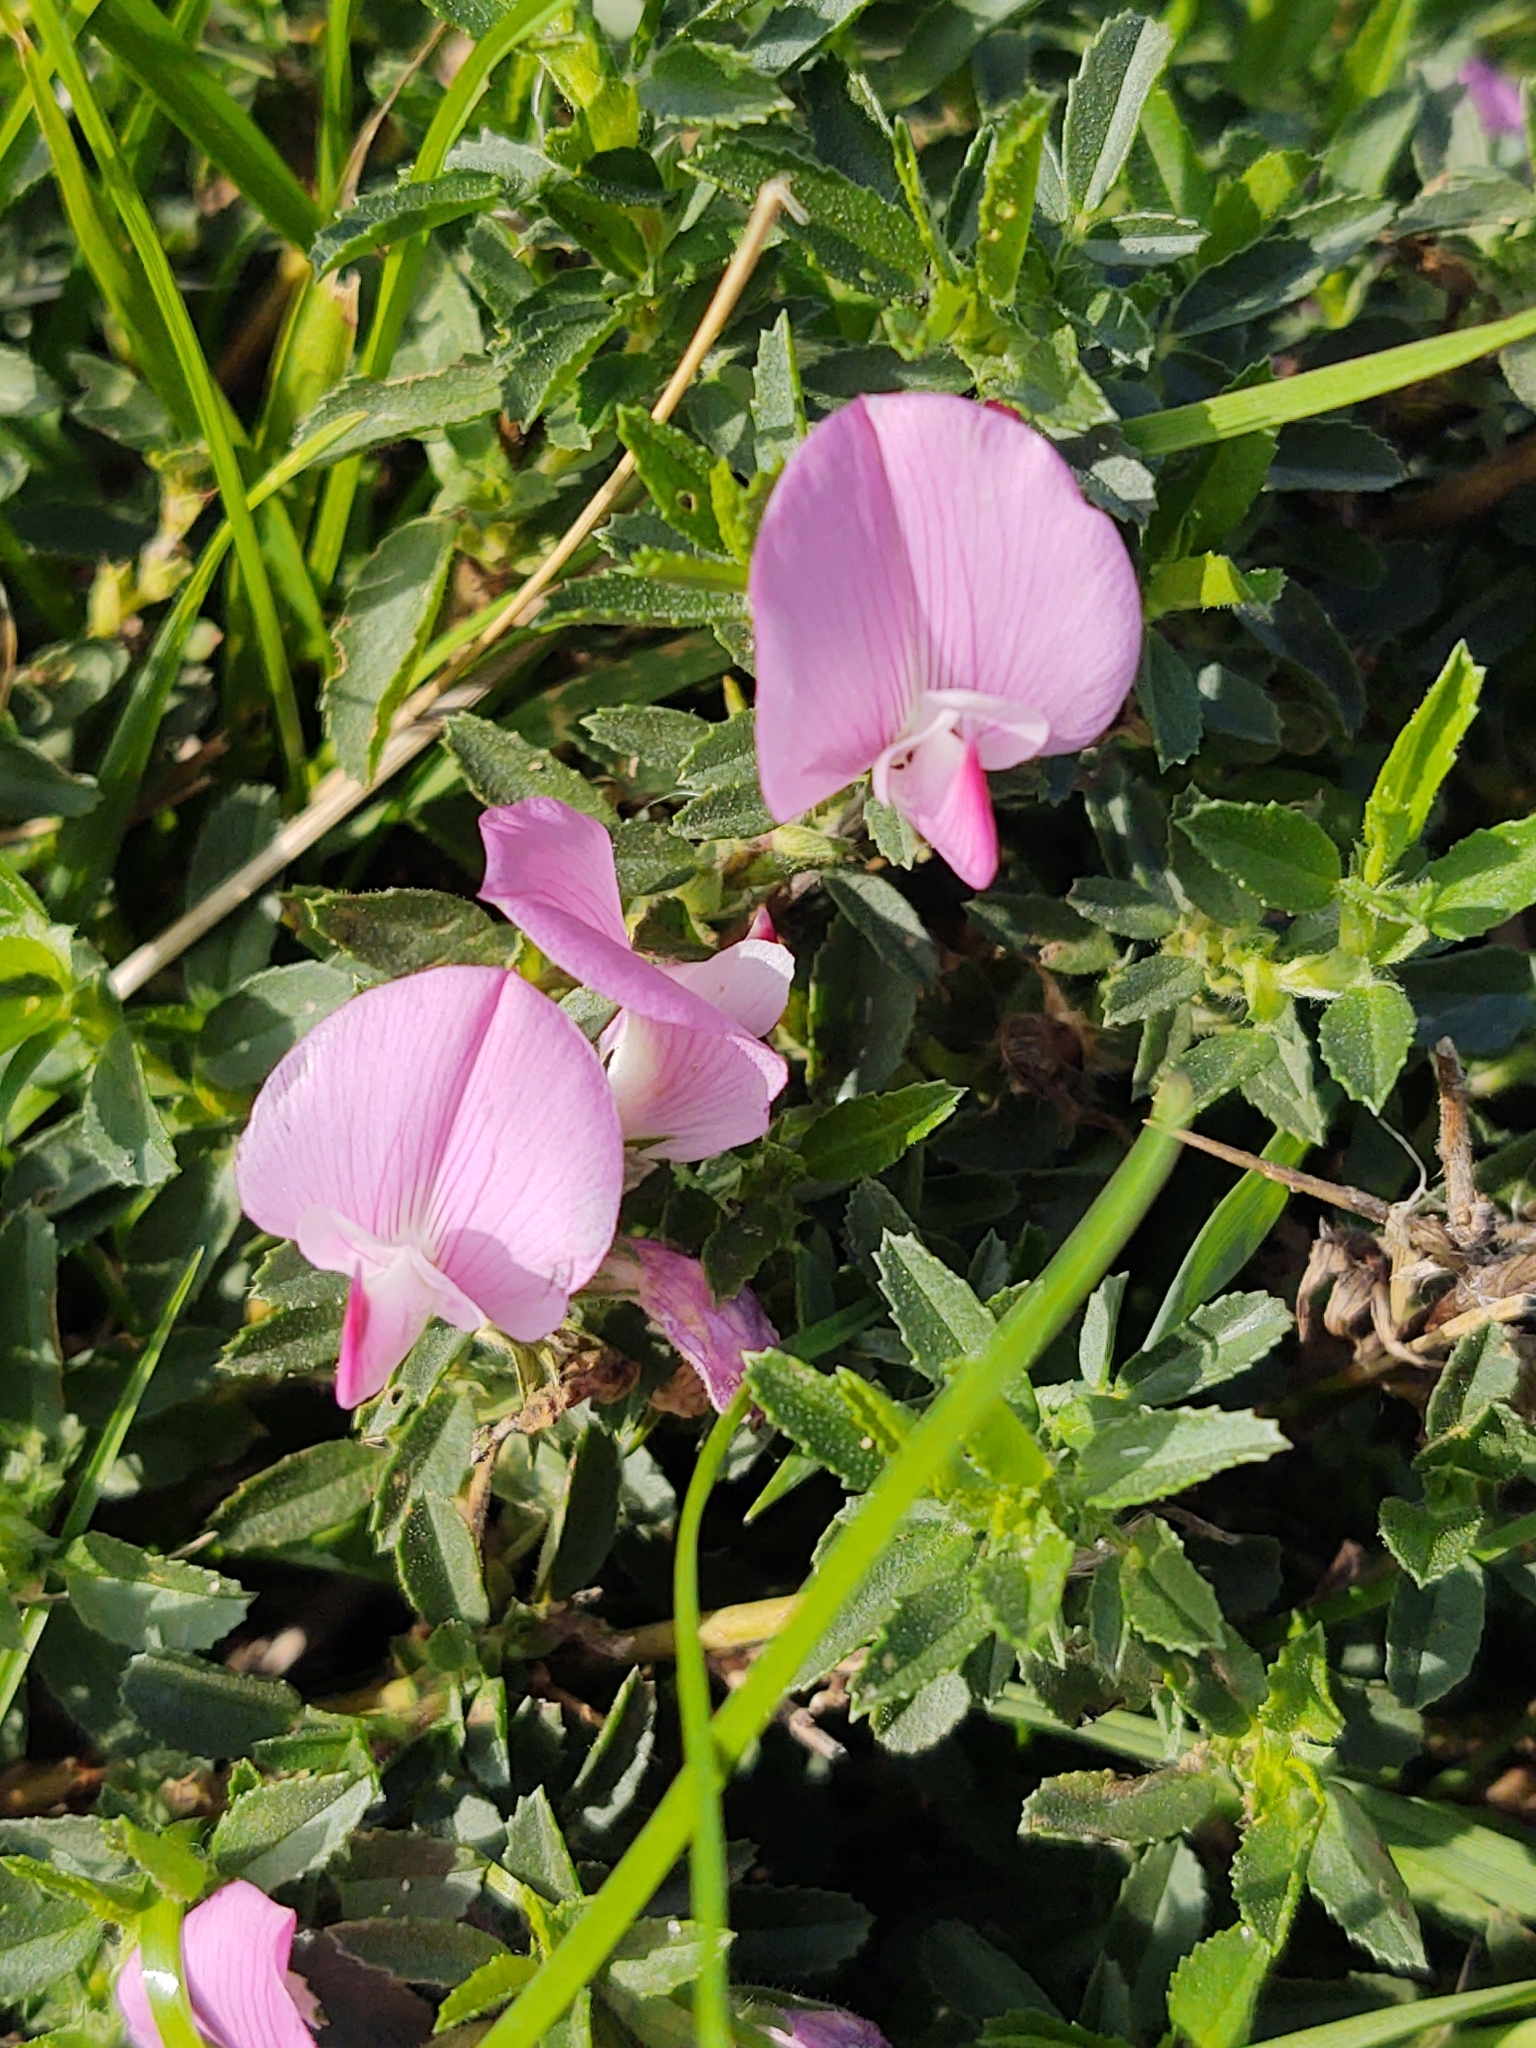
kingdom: Plantae
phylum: Tracheophyta
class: Magnoliopsida
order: Fabales
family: Fabaceae
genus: Ononis
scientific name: Ononis spinosa
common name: Spiny restharrow
